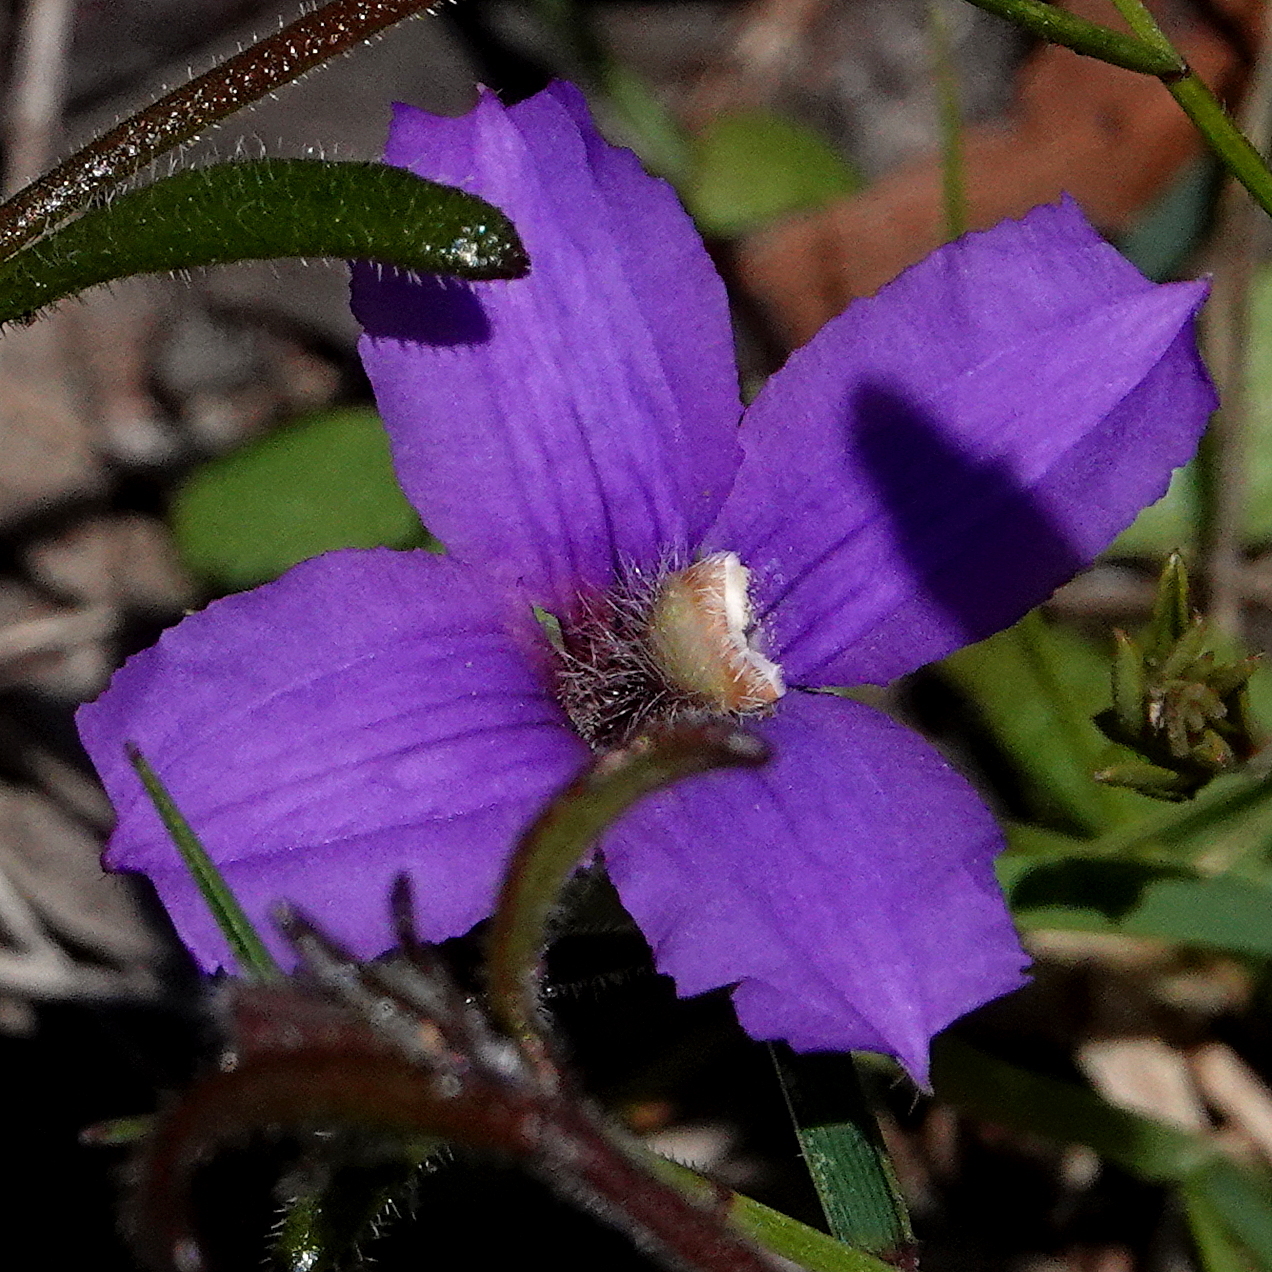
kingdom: Plantae
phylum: Tracheophyta
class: Magnoliopsida
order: Asterales
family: Goodeniaceae
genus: Scaevola
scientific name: Scaevola ramosissima
